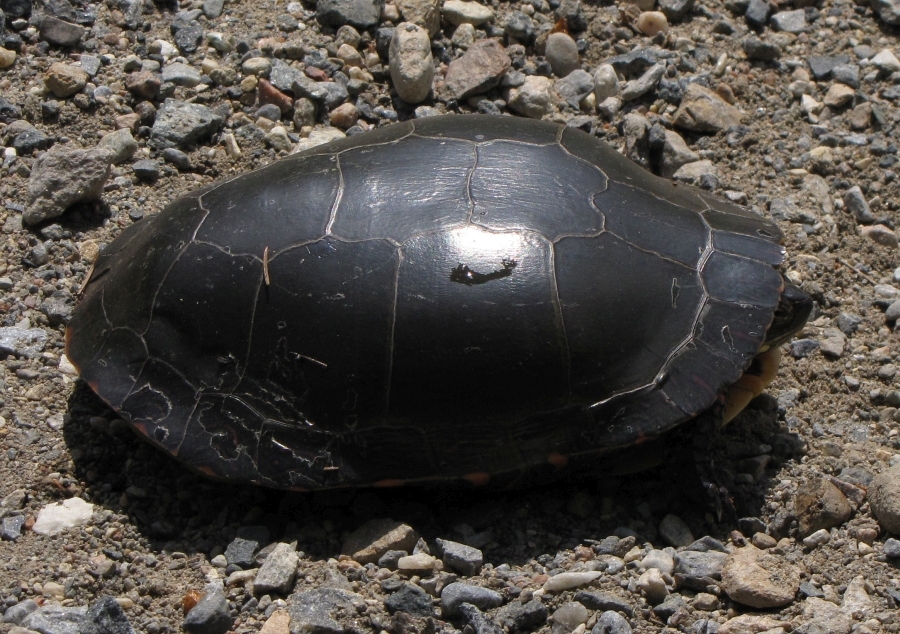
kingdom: Animalia
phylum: Chordata
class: Testudines
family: Emydidae
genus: Chrysemys
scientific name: Chrysemys picta
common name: Painted turtle
